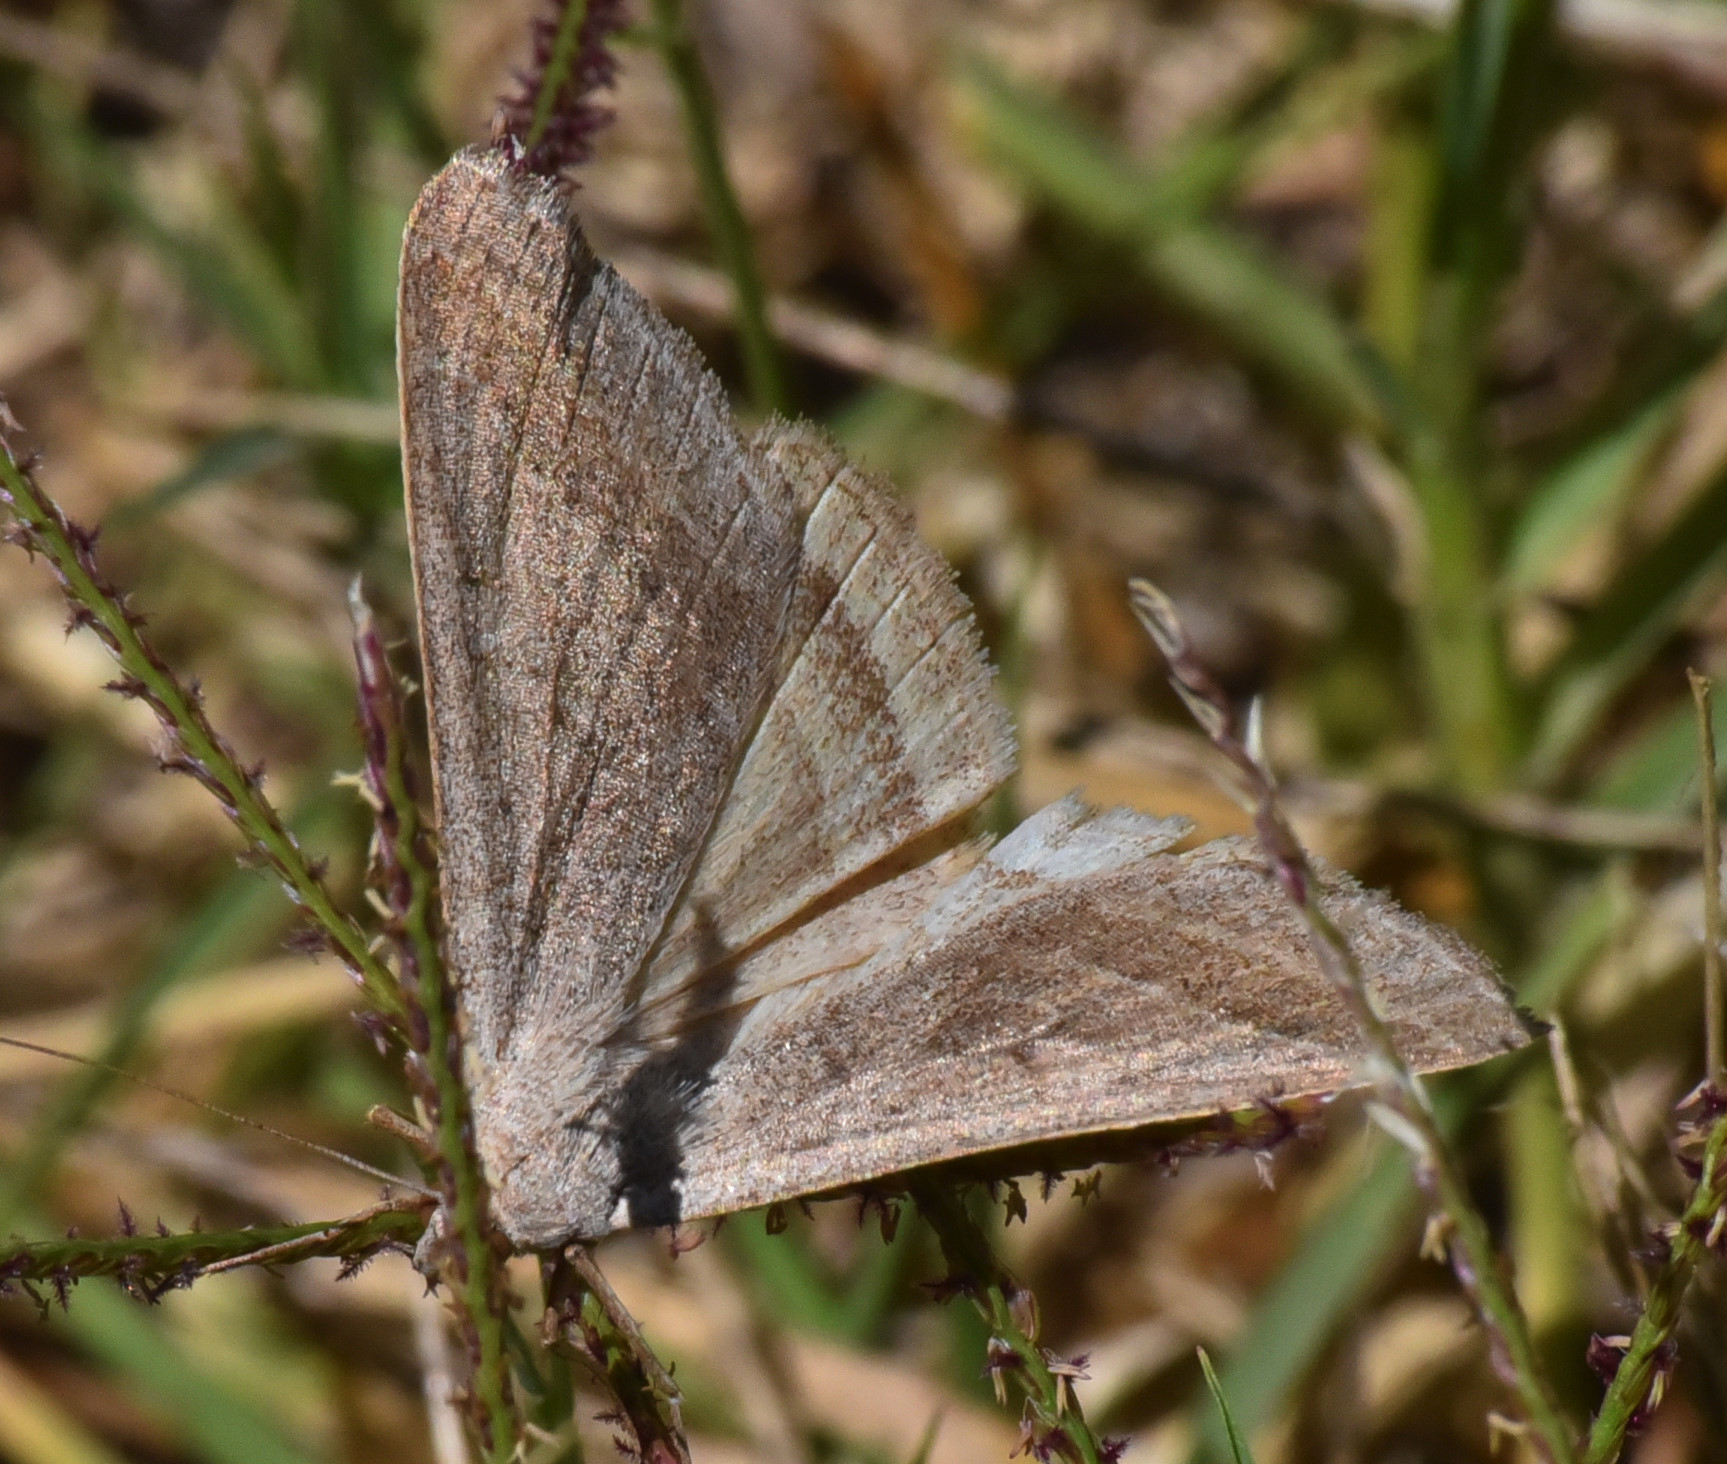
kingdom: Animalia
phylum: Arthropoda
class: Insecta
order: Lepidoptera
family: Erebidae
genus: Caenurgia
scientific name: Caenurgia togataria
